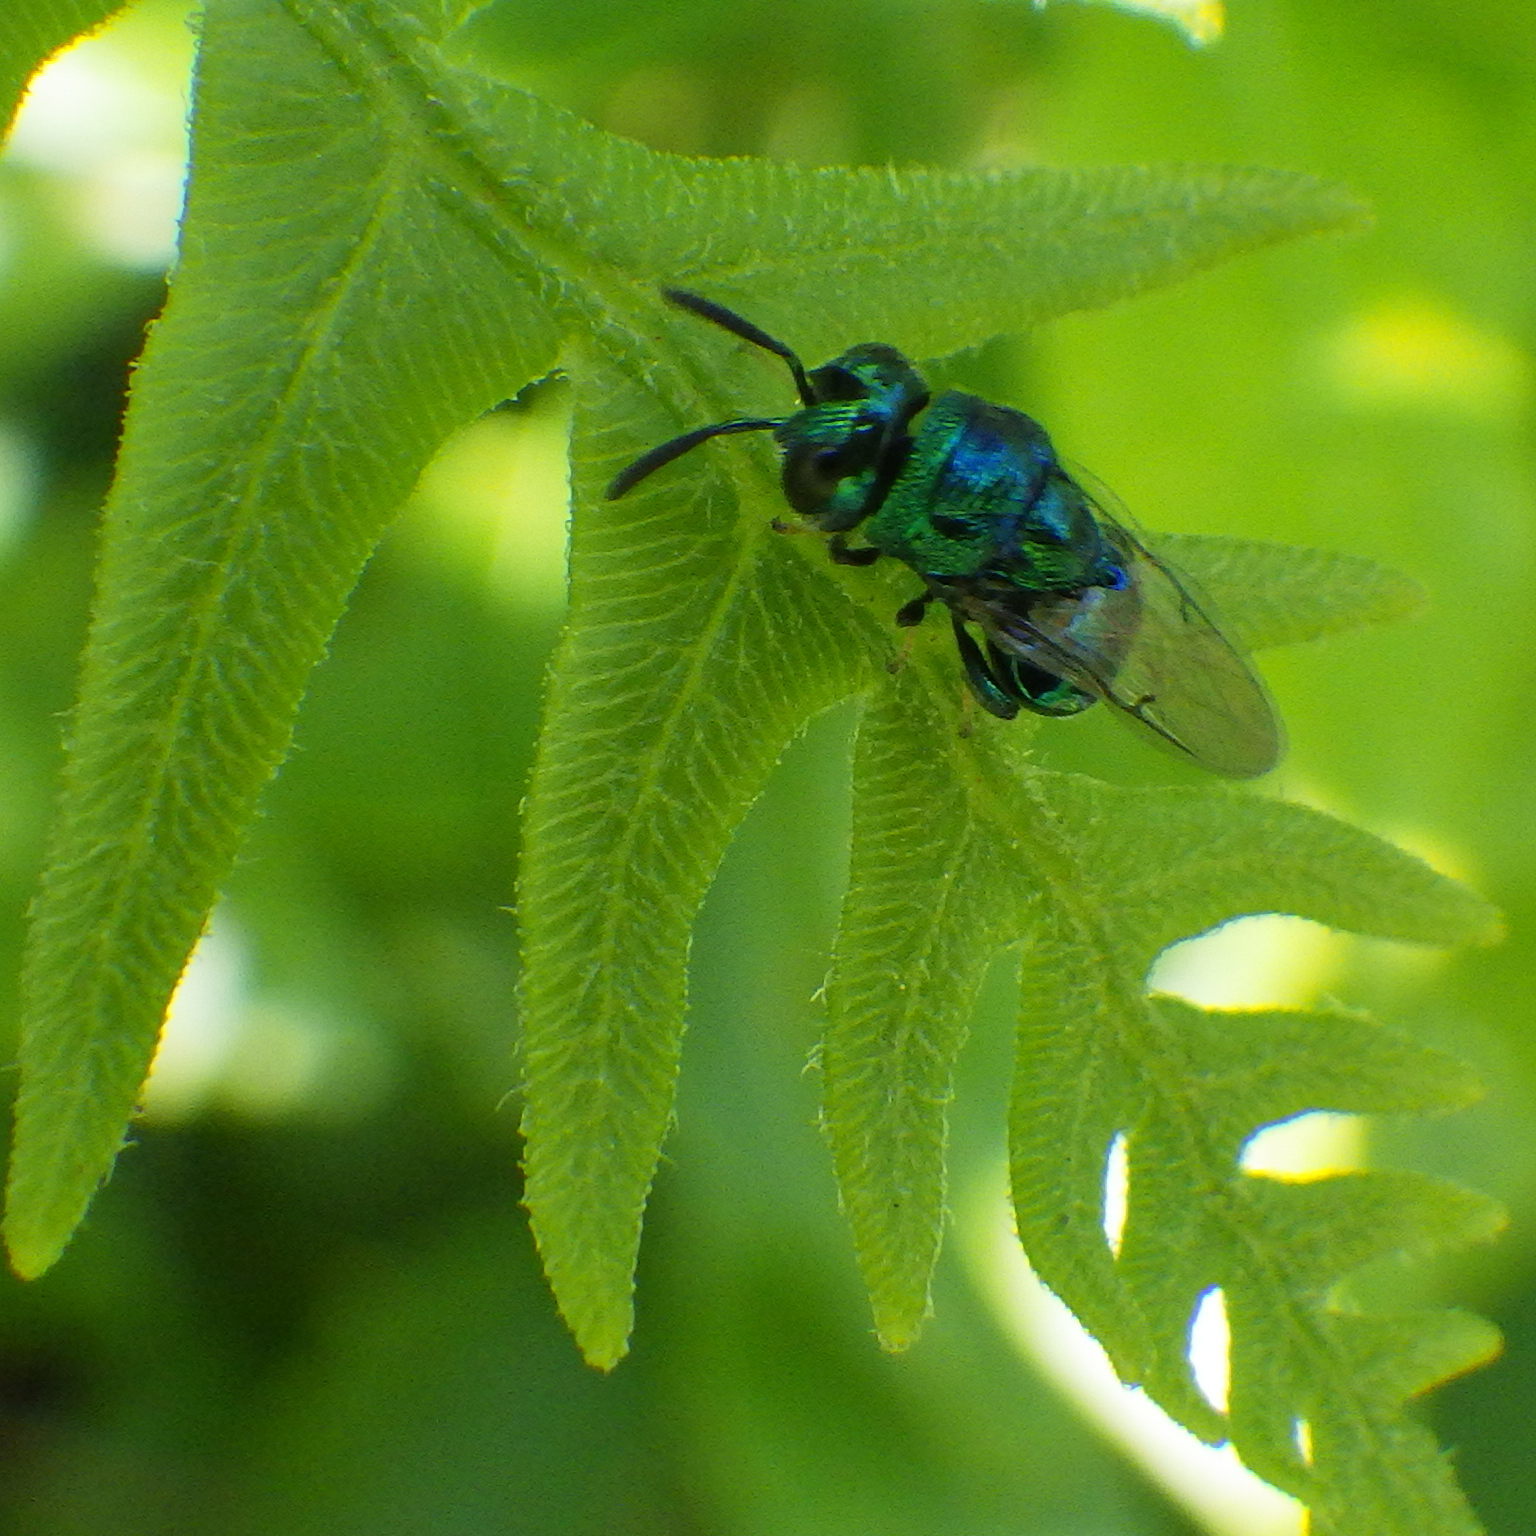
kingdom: Animalia
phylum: Arthropoda
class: Insecta
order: Hymenoptera
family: Perilampidae
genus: Euperilampus
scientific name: Euperilampus triangularis
